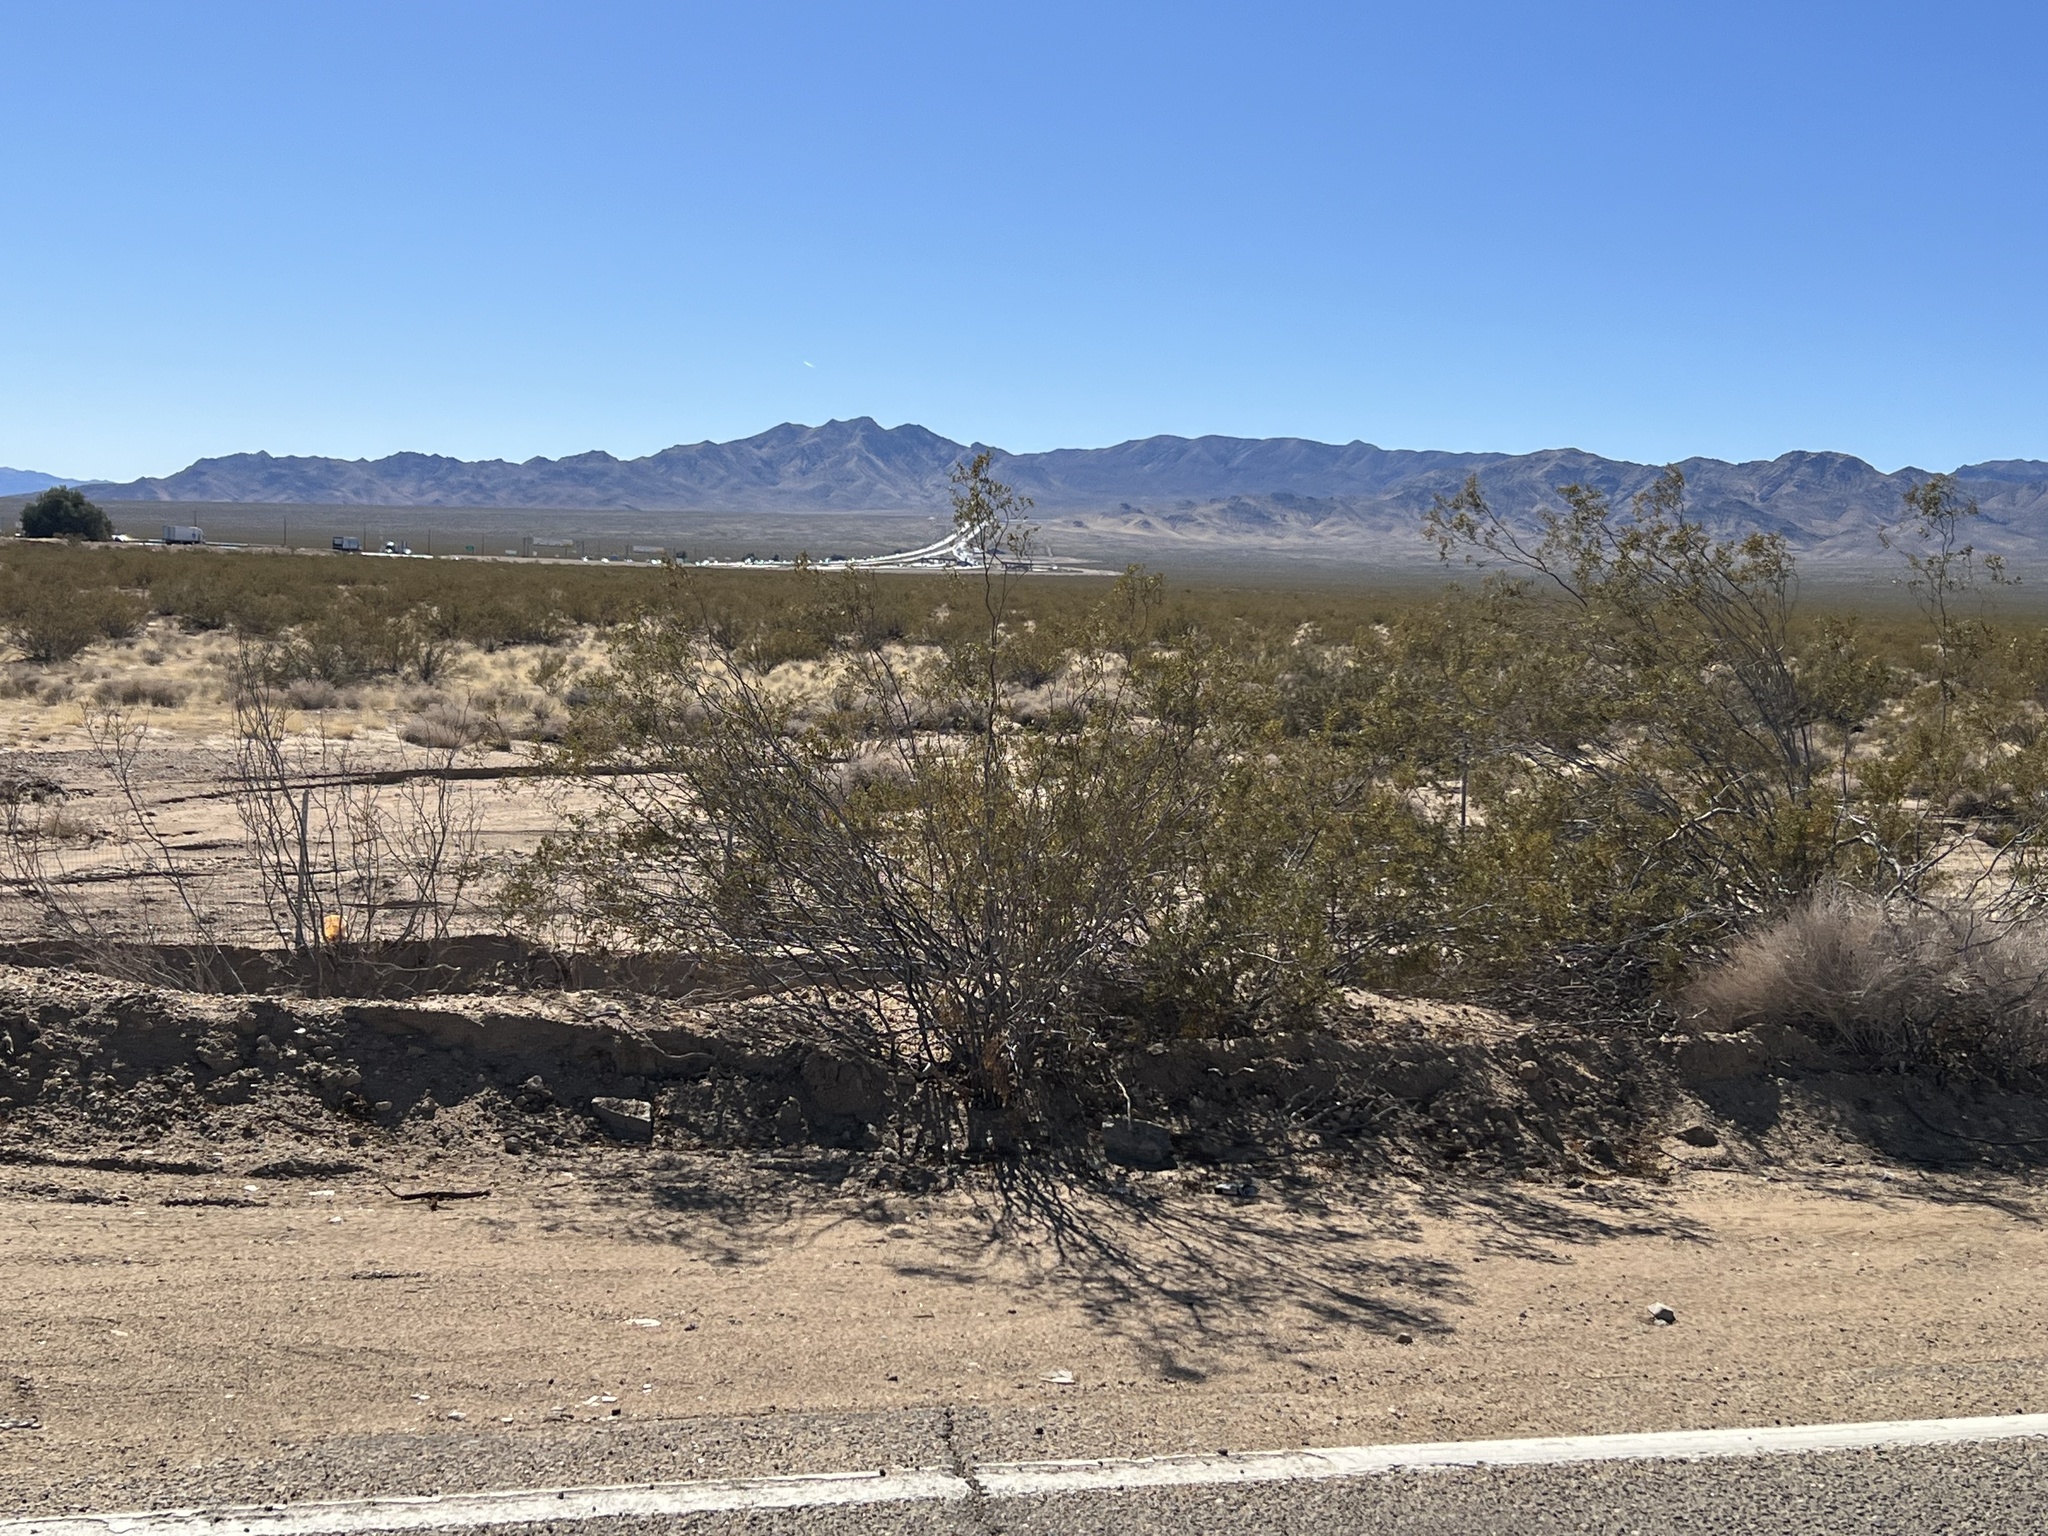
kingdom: Plantae
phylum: Tracheophyta
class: Magnoliopsida
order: Zygophyllales
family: Zygophyllaceae
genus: Larrea
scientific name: Larrea tridentata
